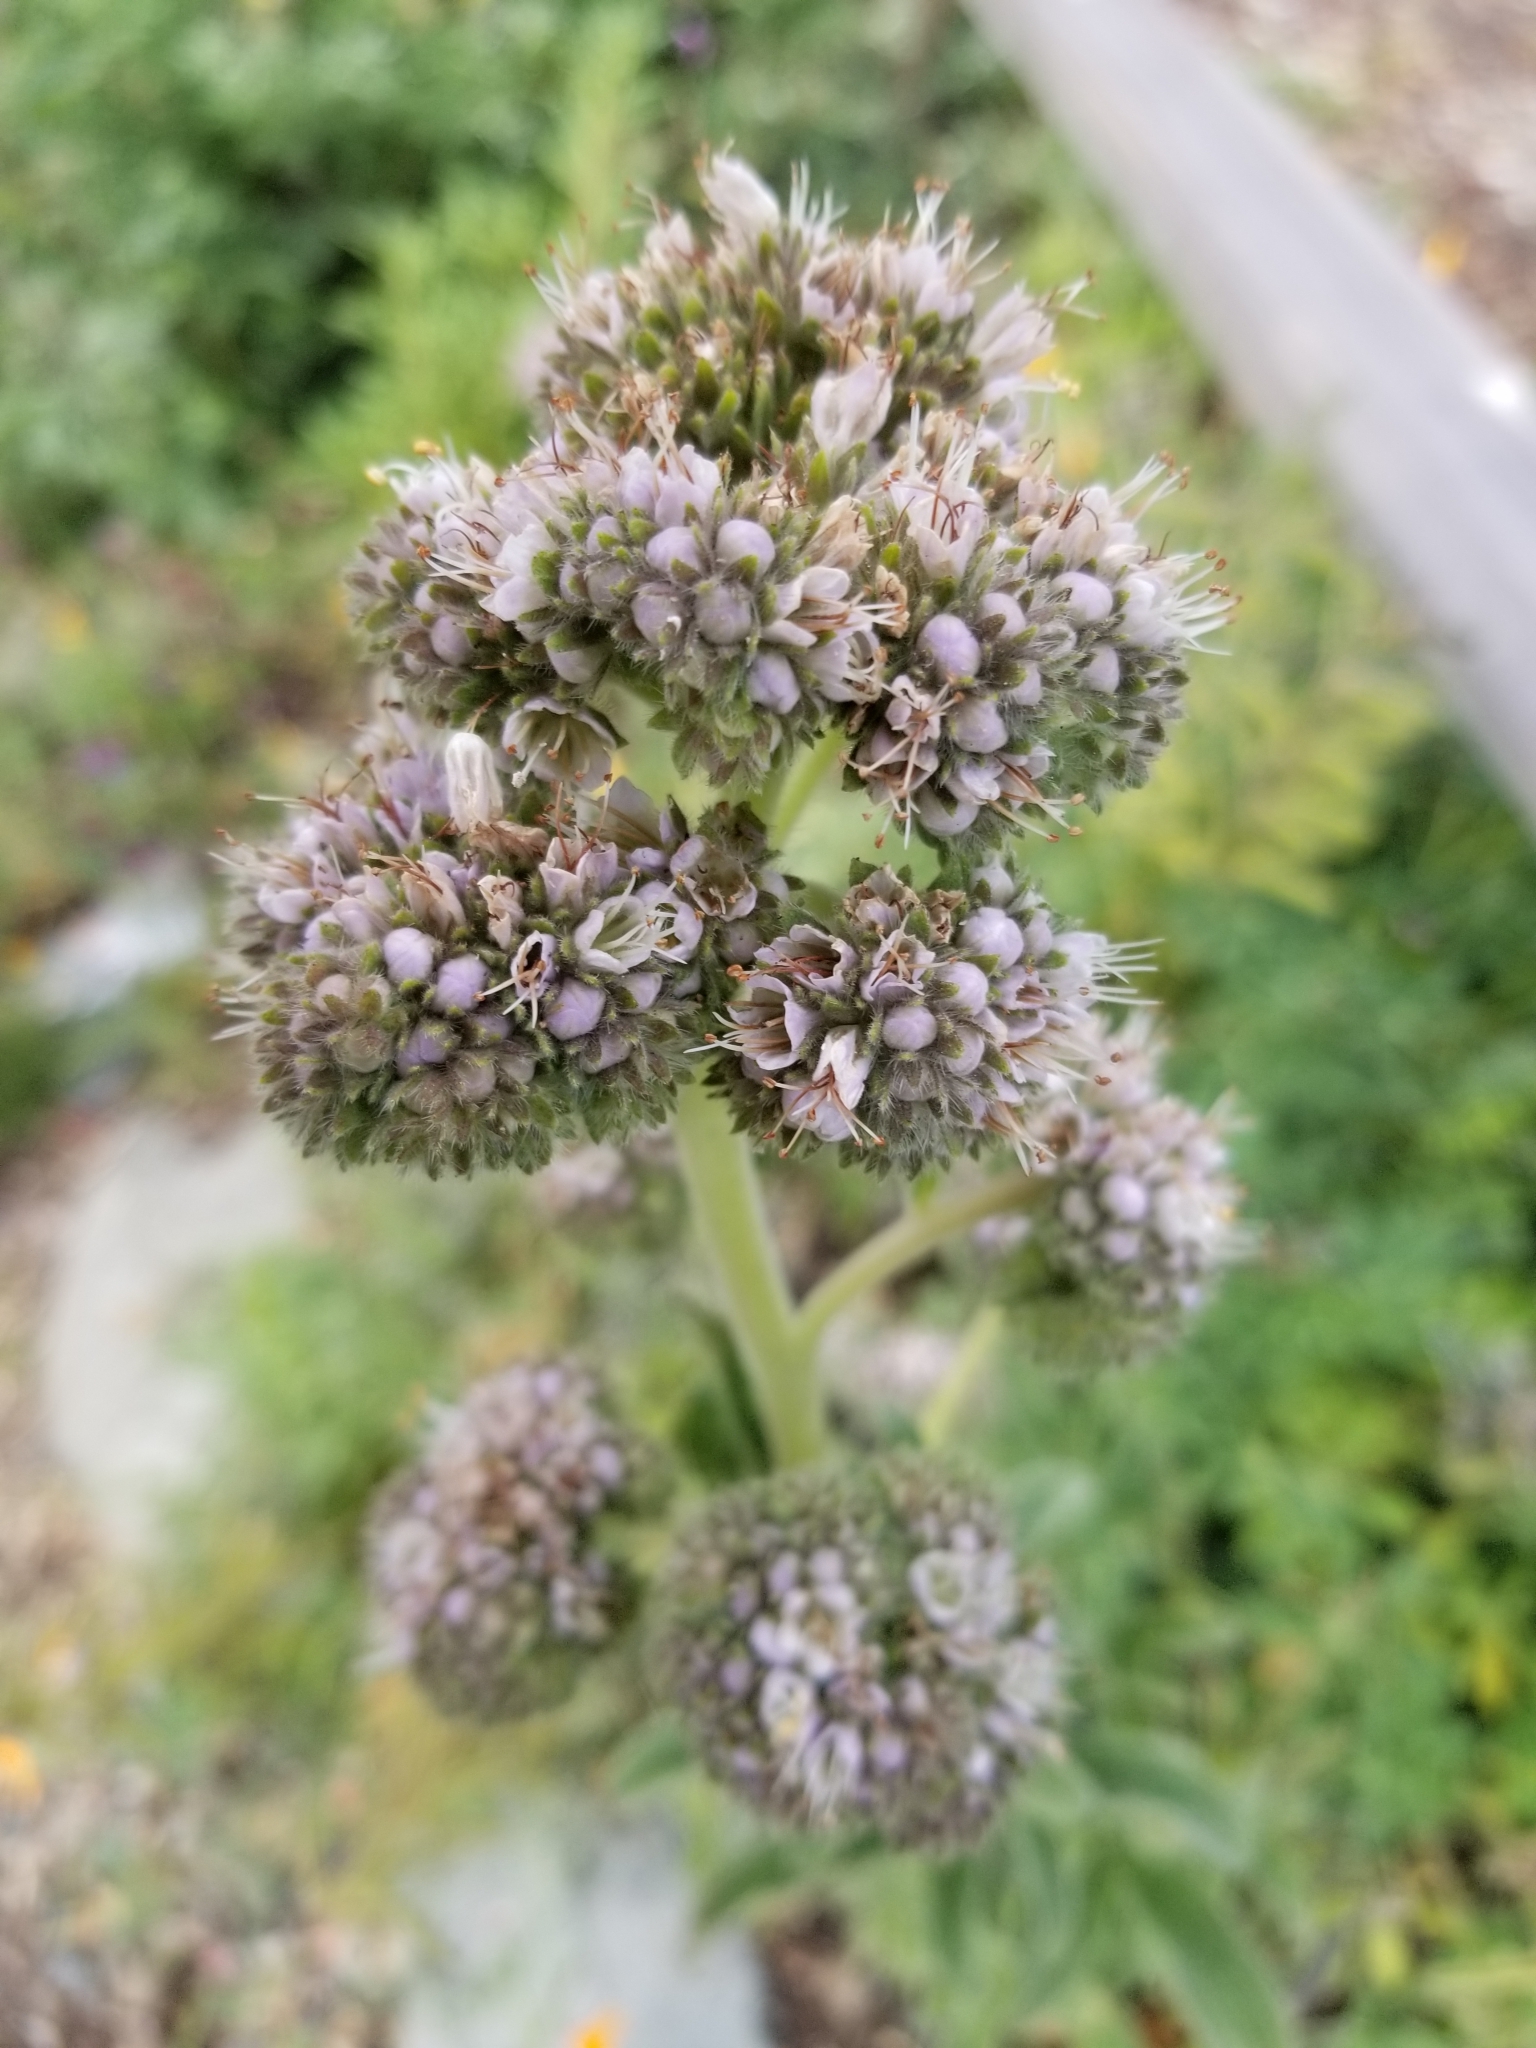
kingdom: Plantae
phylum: Tracheophyta
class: Magnoliopsida
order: Boraginales
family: Hydrophyllaceae
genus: Phacelia
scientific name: Phacelia californica
